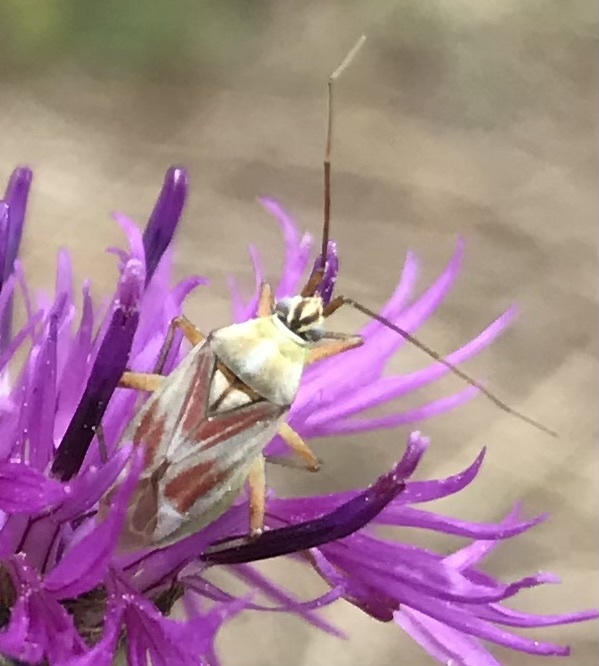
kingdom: Animalia
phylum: Arthropoda
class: Insecta
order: Hemiptera
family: Miridae
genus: Calocoris
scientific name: Calocoris roseomaculatus
